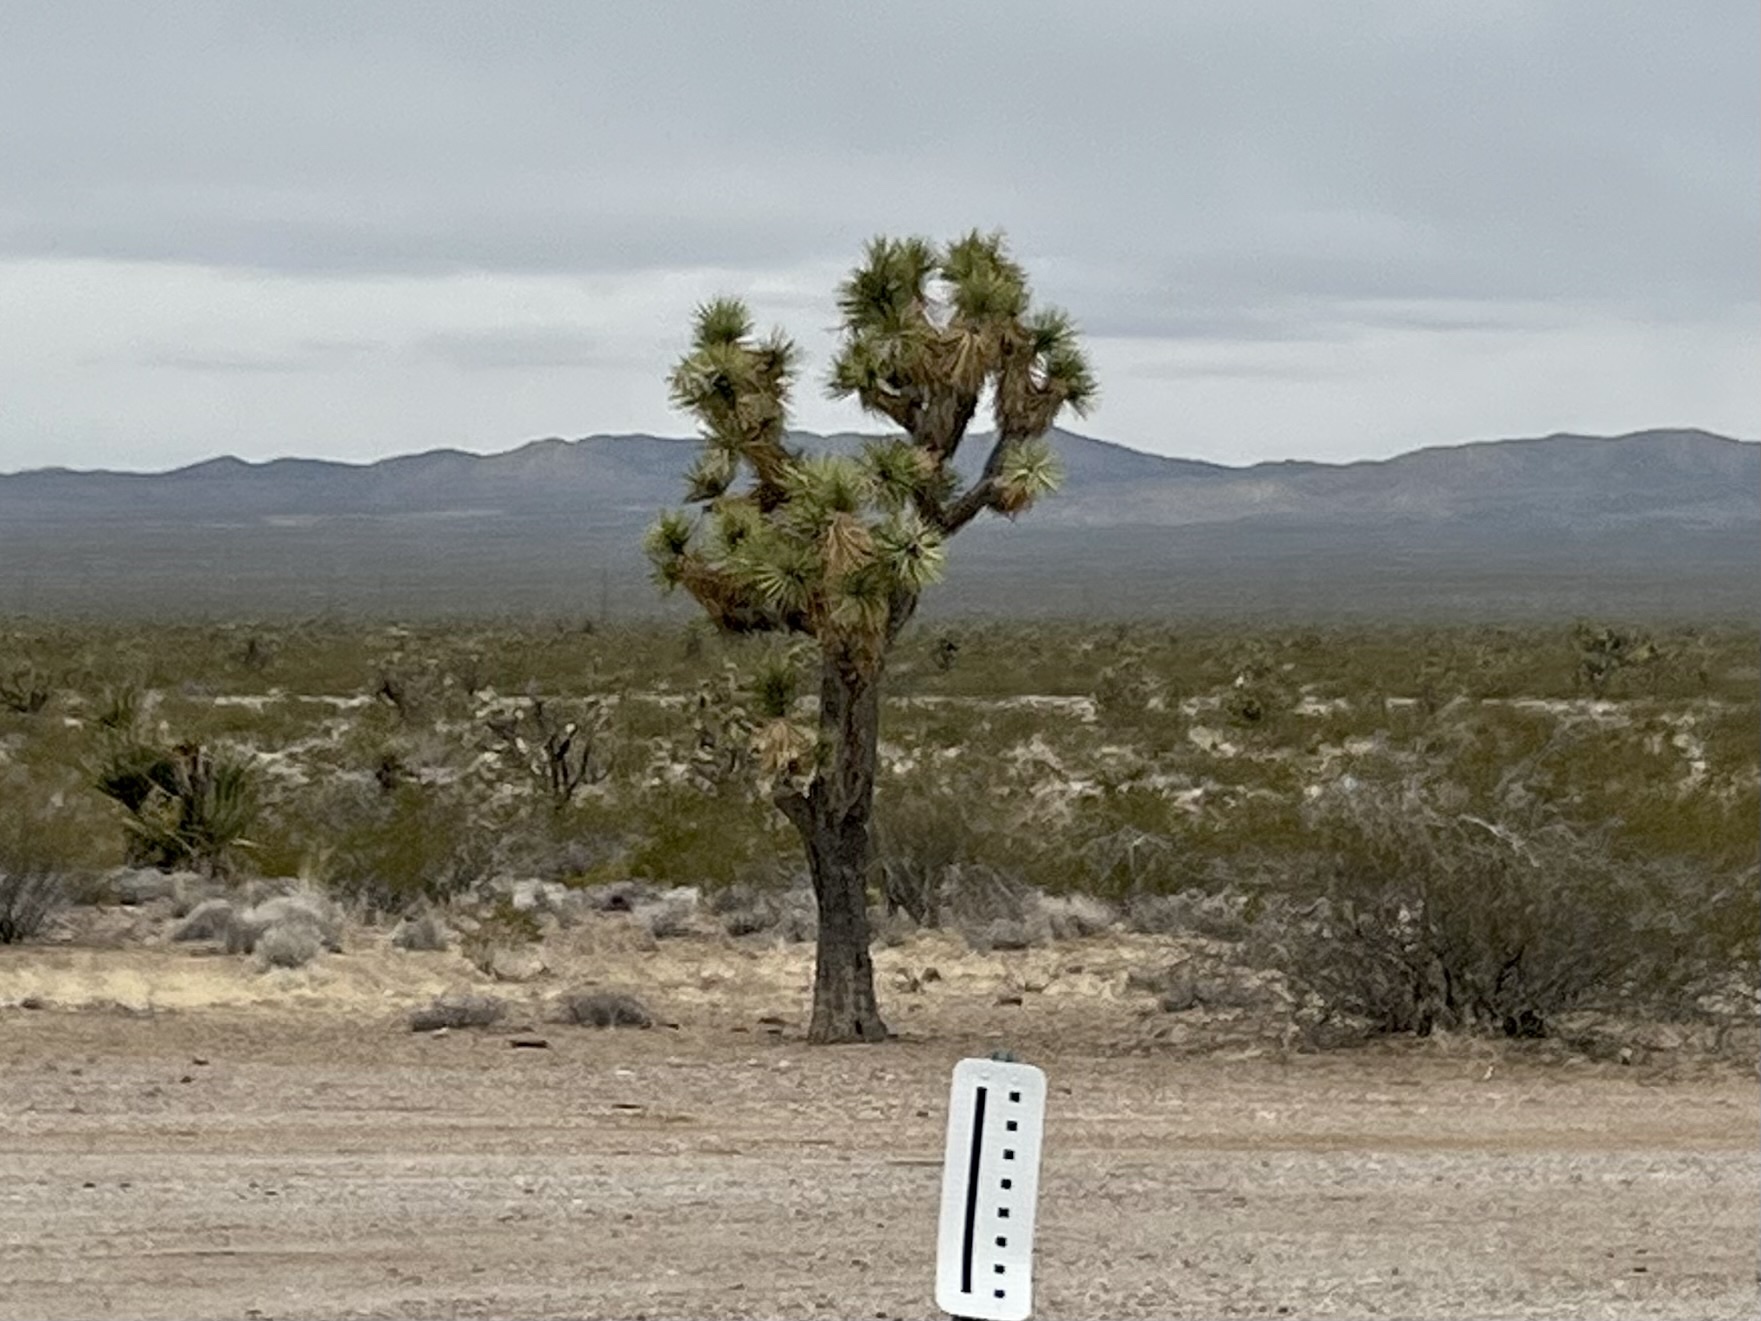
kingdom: Plantae
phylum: Tracheophyta
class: Liliopsida
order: Asparagales
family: Asparagaceae
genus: Yucca
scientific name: Yucca brevifolia
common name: Joshua tree
